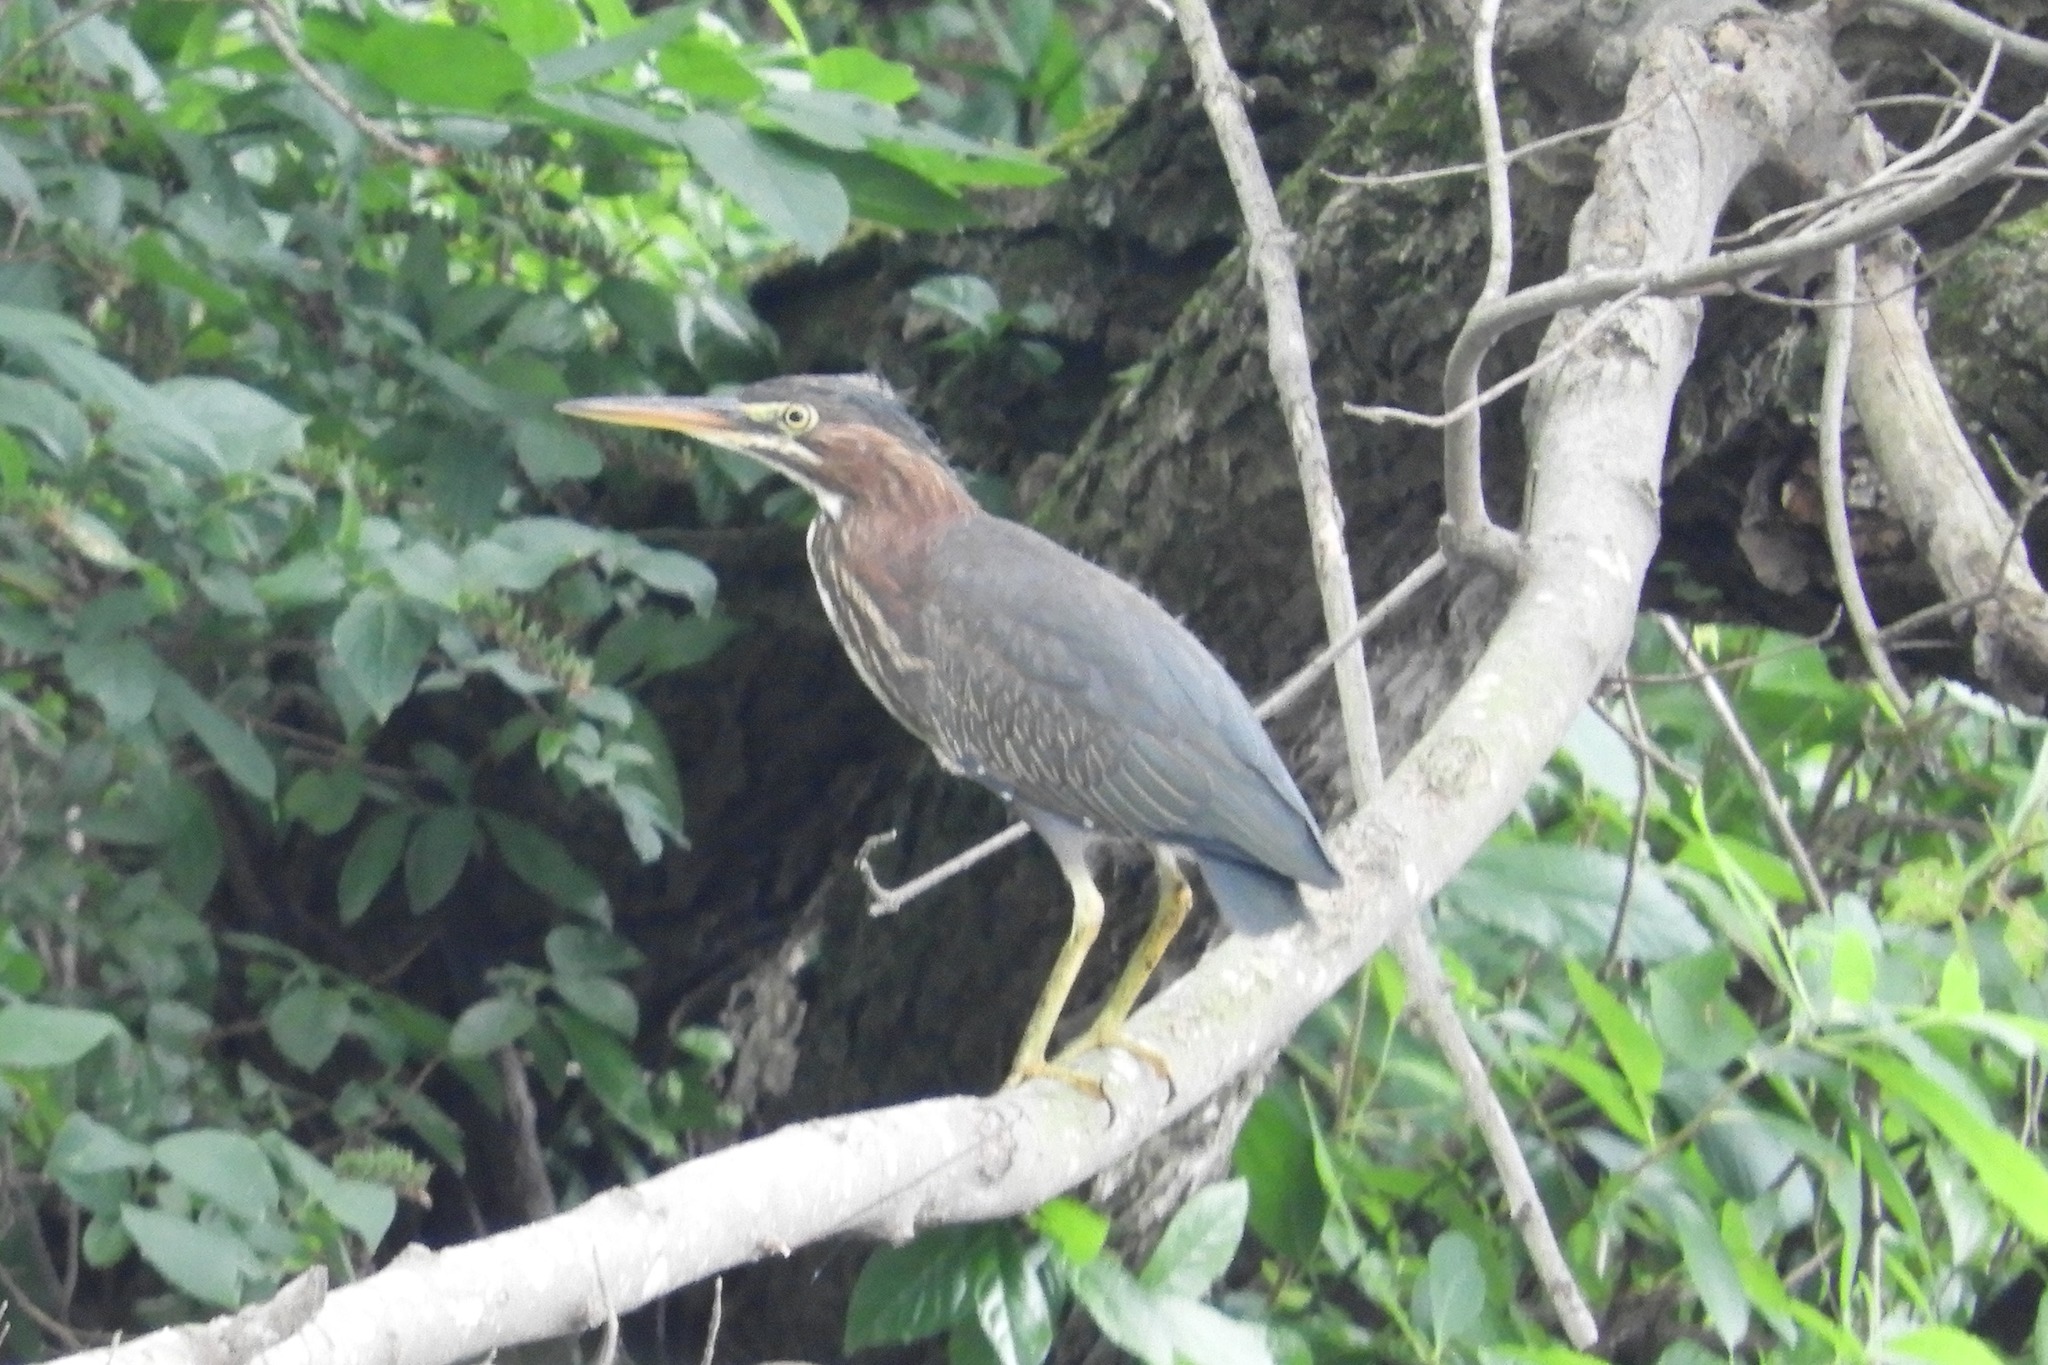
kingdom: Animalia
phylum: Chordata
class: Aves
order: Pelecaniformes
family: Ardeidae
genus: Butorides
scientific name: Butorides virescens
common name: Green heron
